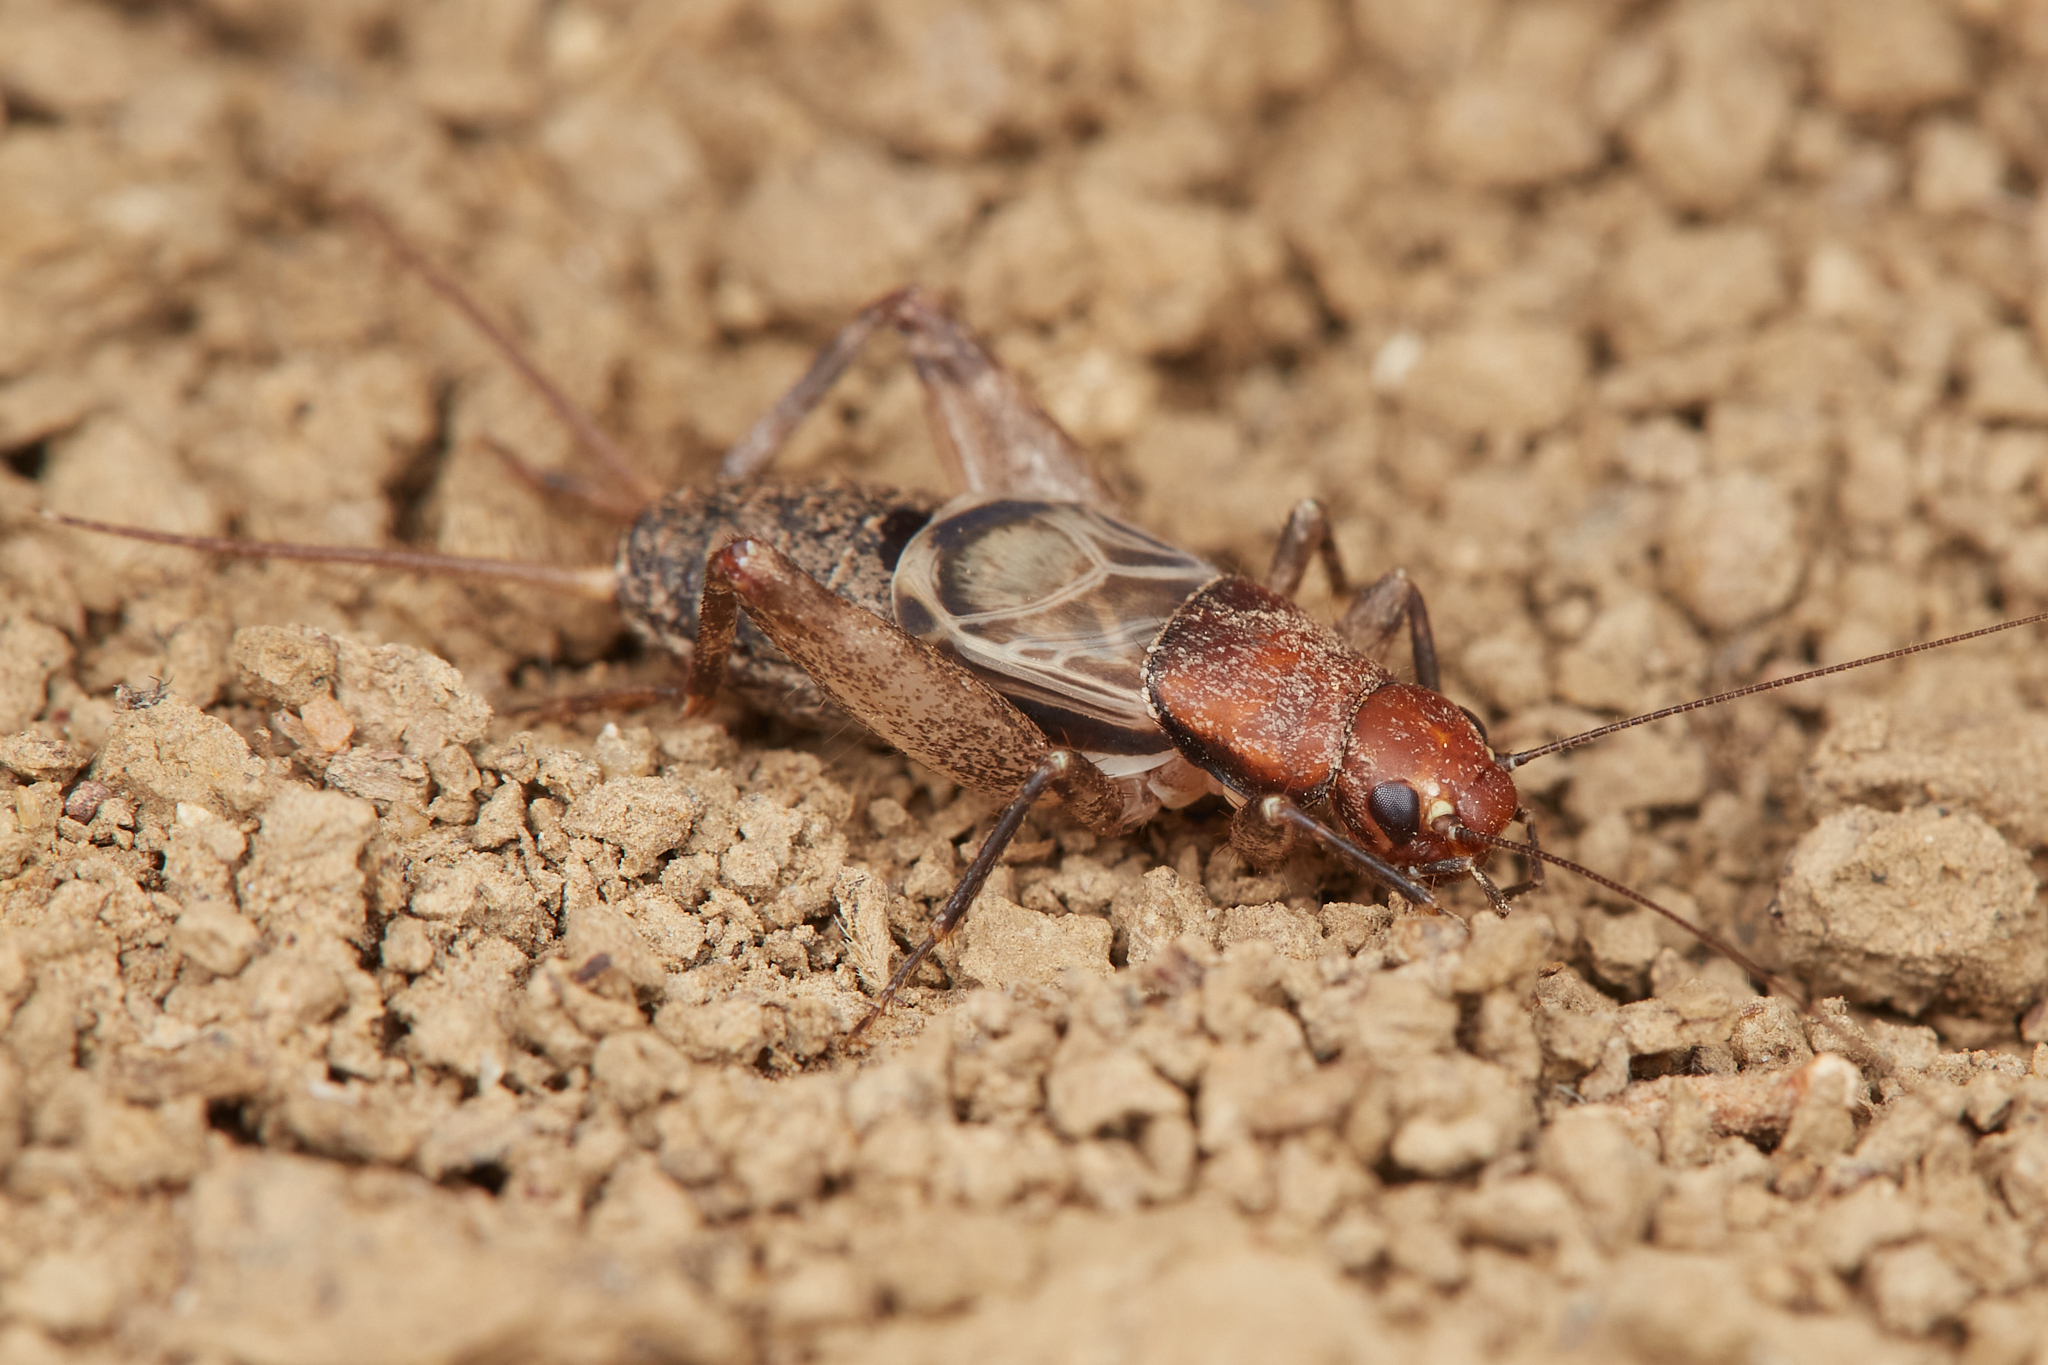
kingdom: Animalia
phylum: Arthropoda
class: Insecta
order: Orthoptera
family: Mogoplistidae
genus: Hoplosphyrum
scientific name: Hoplosphyrum boreale
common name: Long-winged scaly cricket
